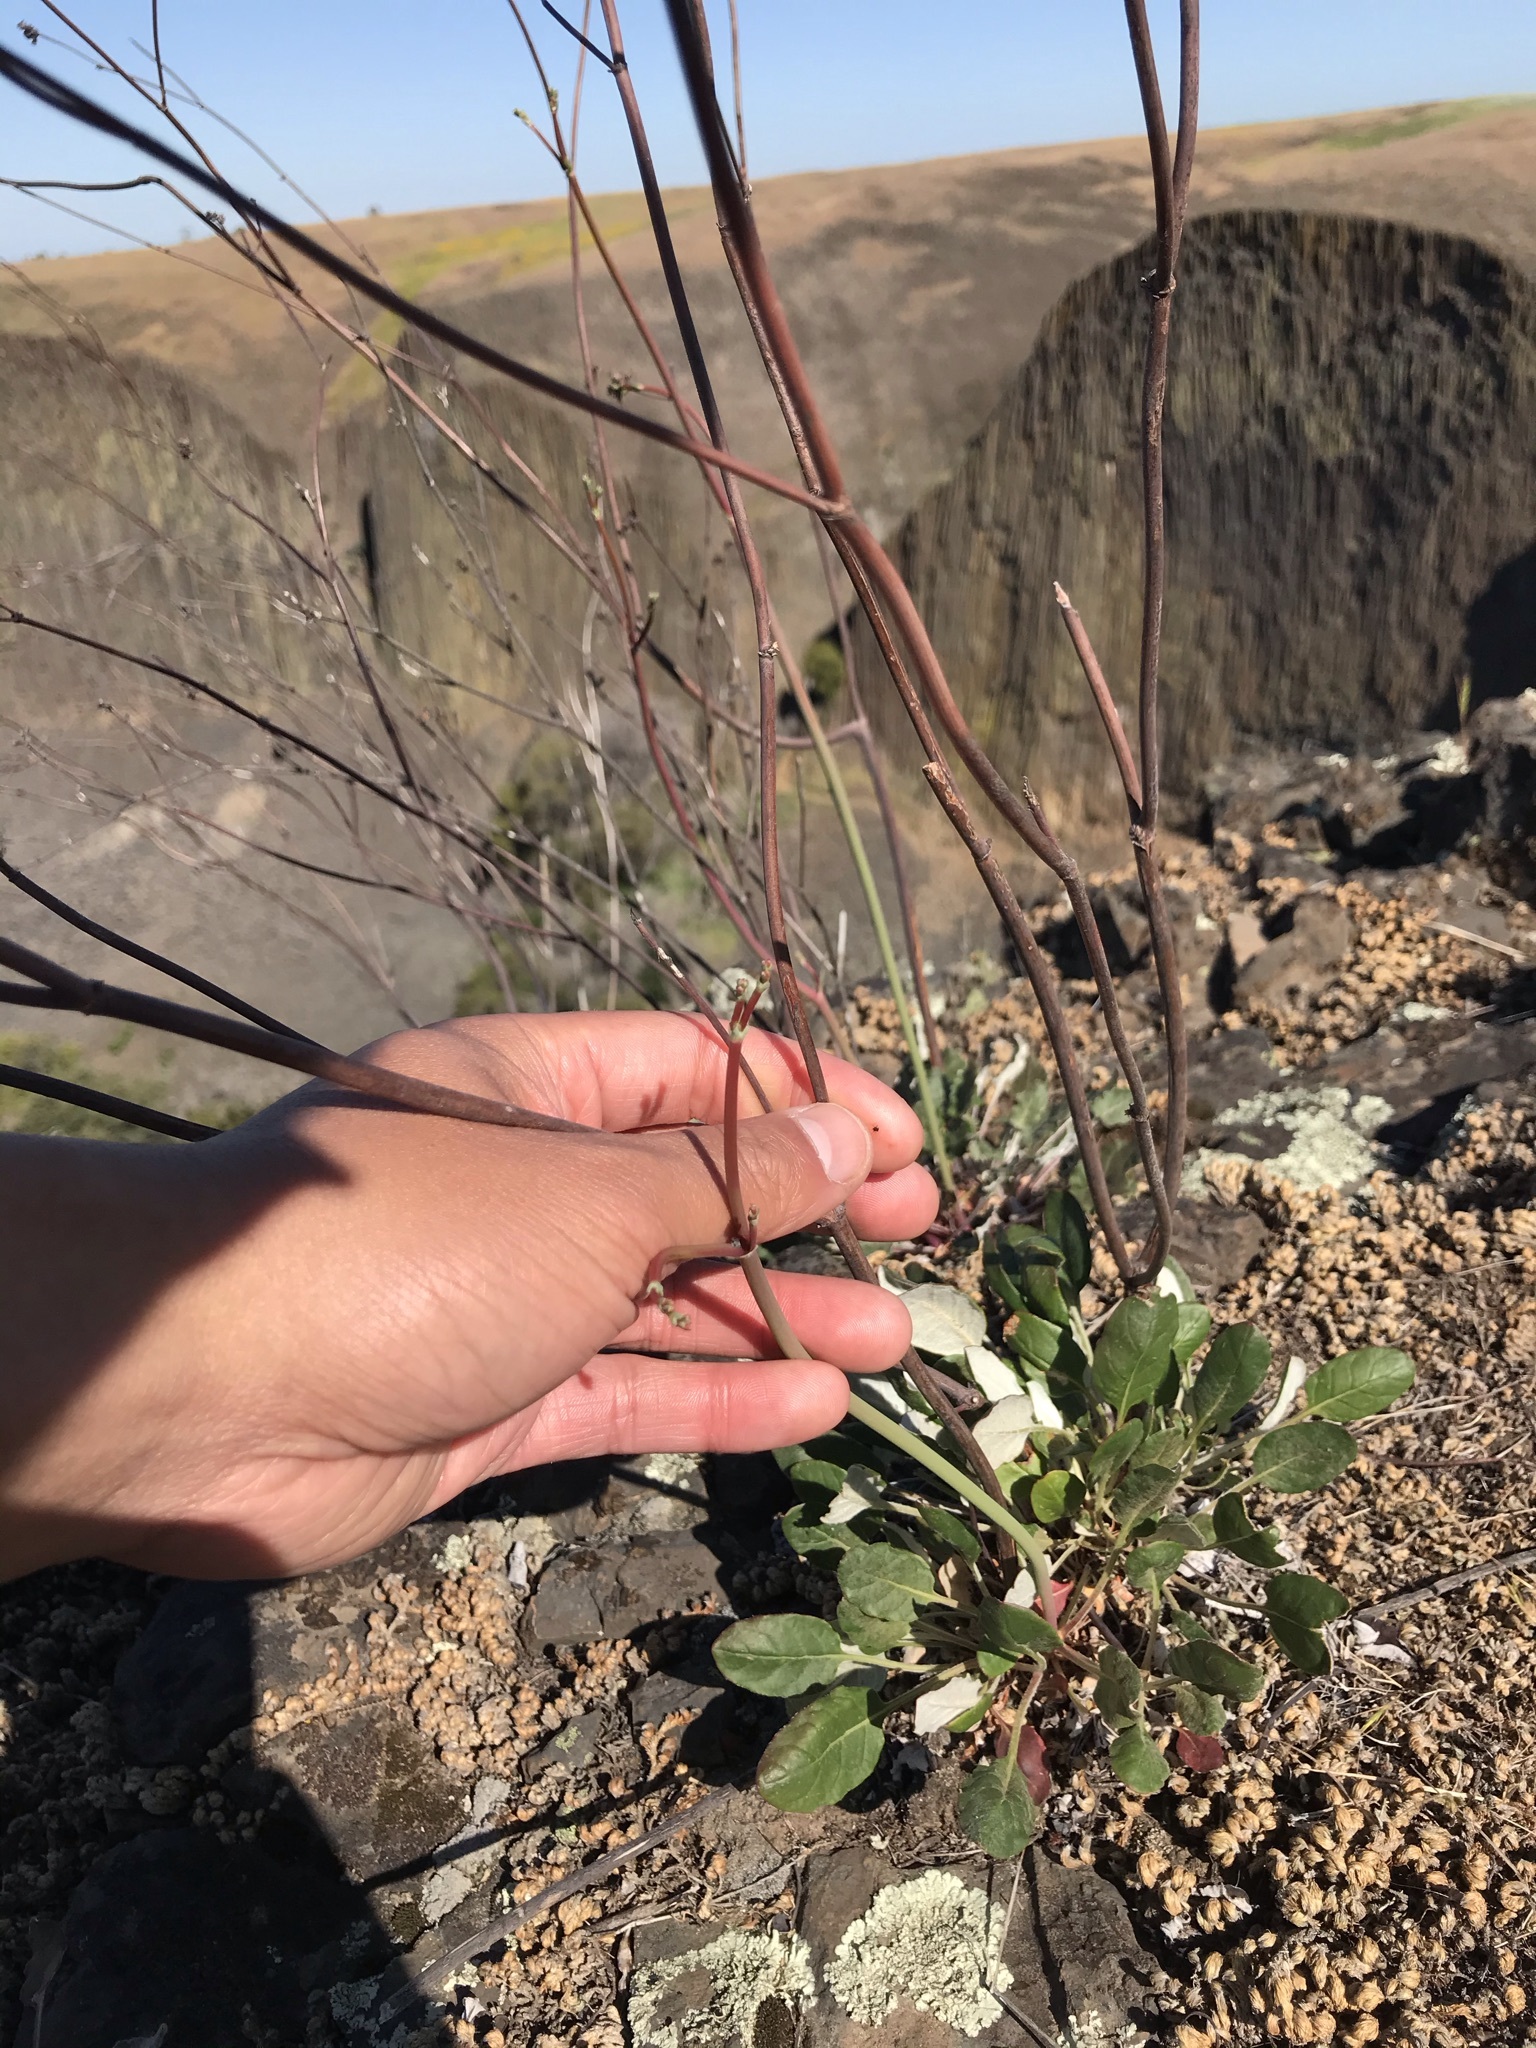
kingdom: Plantae
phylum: Tracheophyta
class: Magnoliopsida
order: Caryophyllales
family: Polygonaceae
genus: Eriogonum
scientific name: Eriogonum nudum
